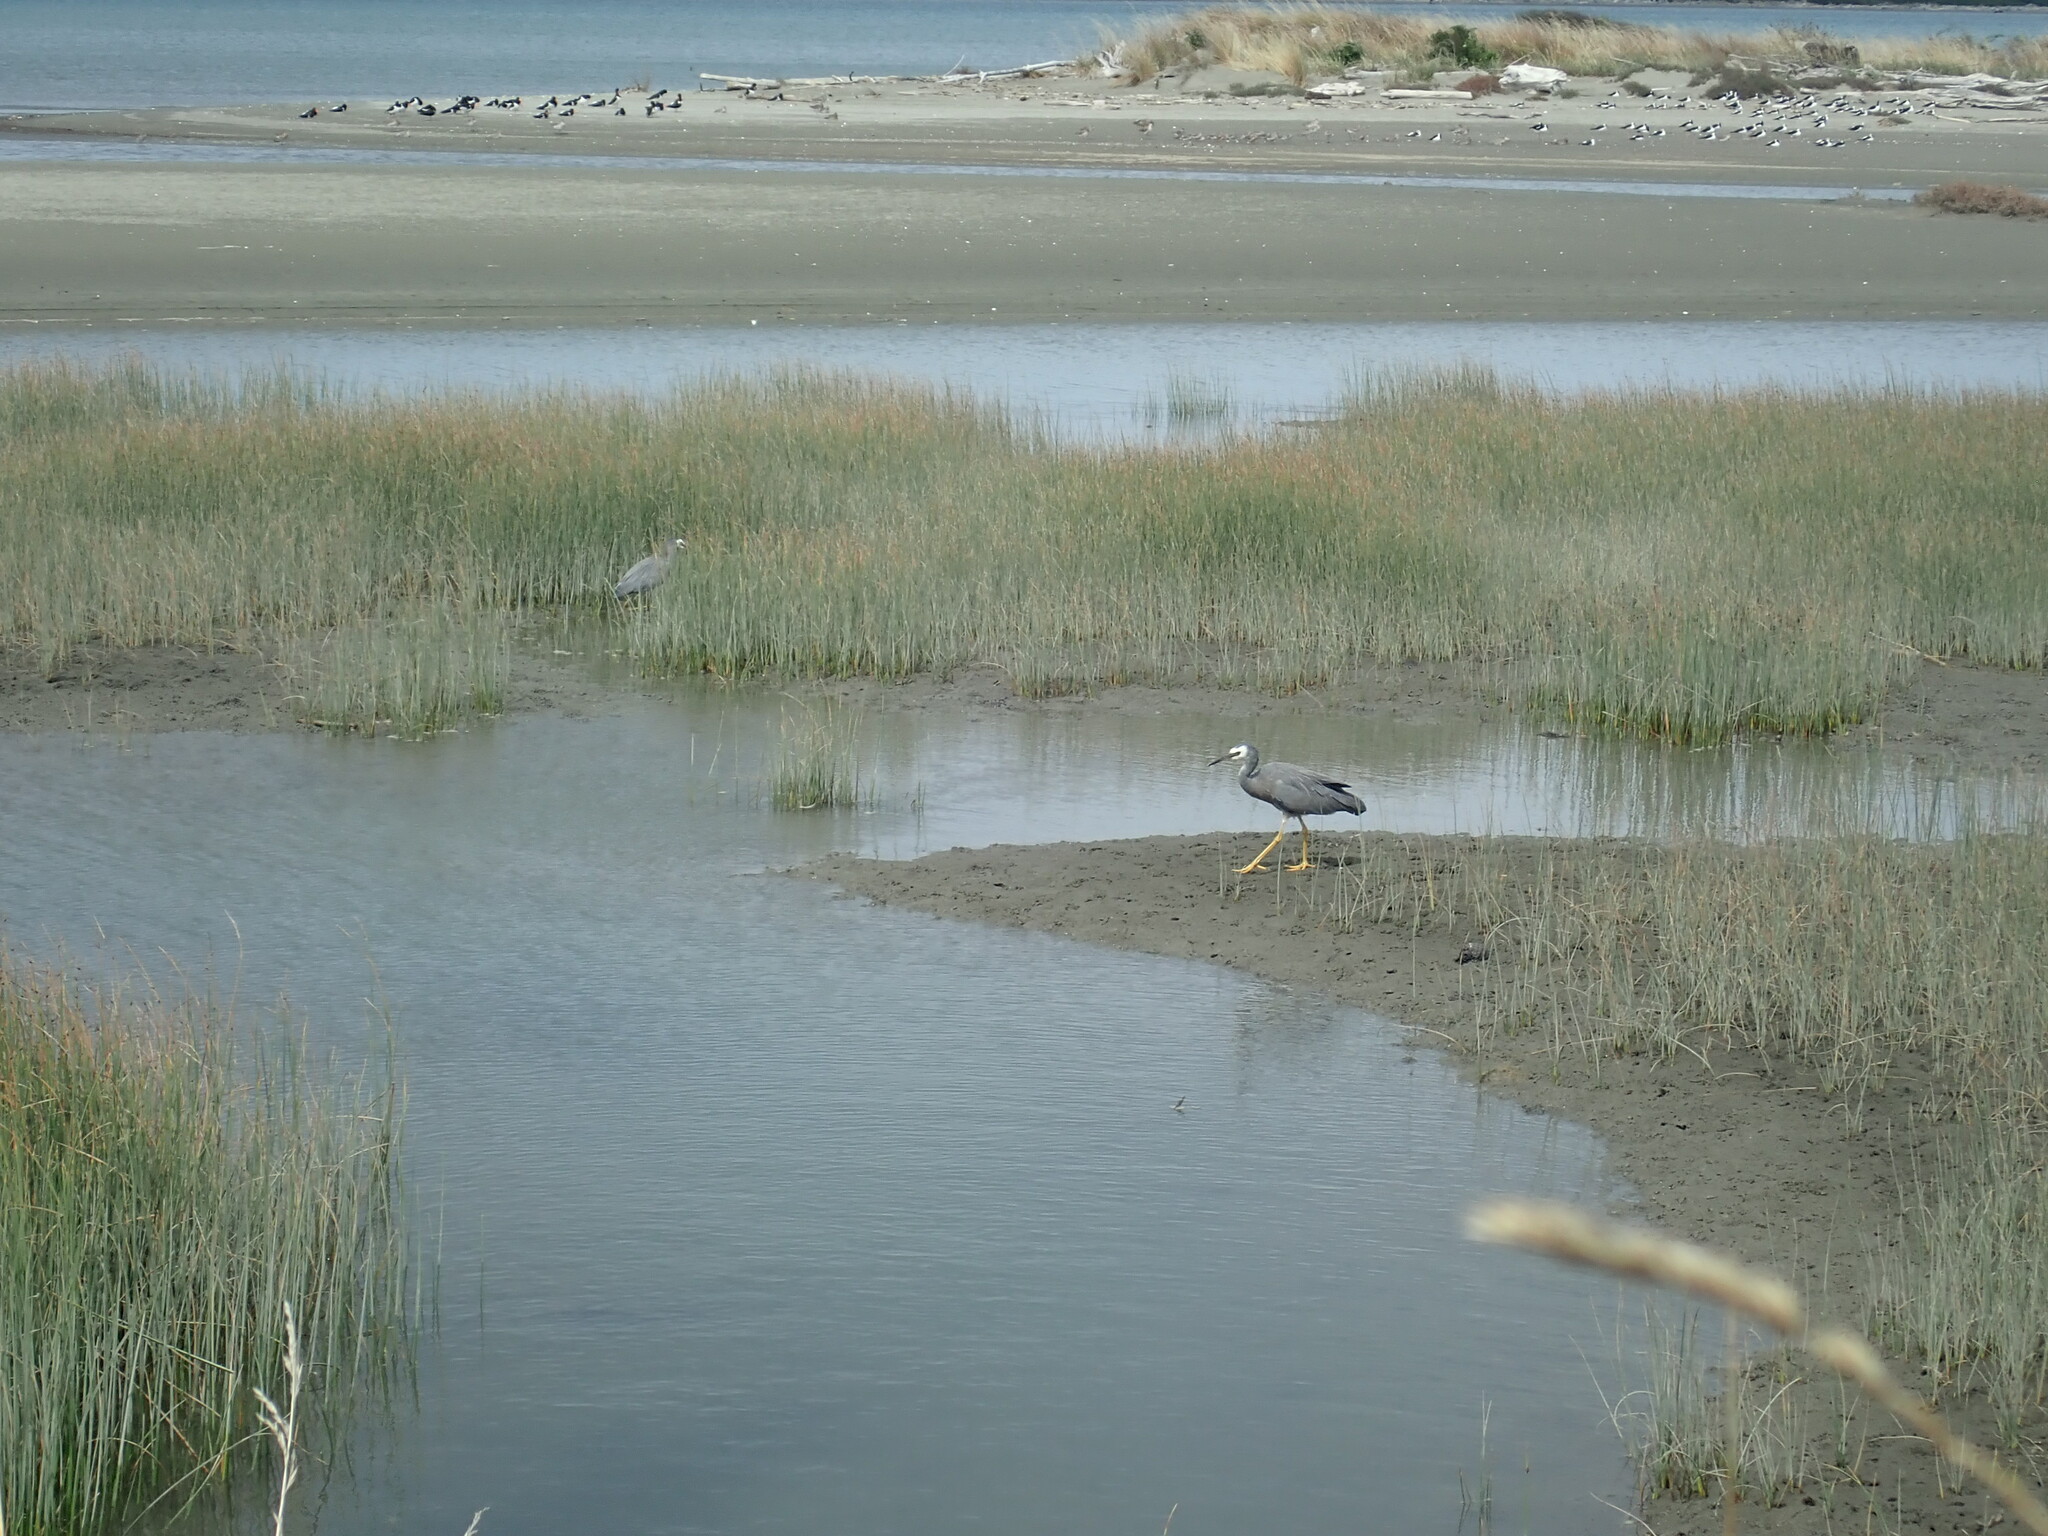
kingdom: Animalia
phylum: Chordata
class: Aves
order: Pelecaniformes
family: Ardeidae
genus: Egretta
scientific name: Egretta novaehollandiae
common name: White-faced heron
